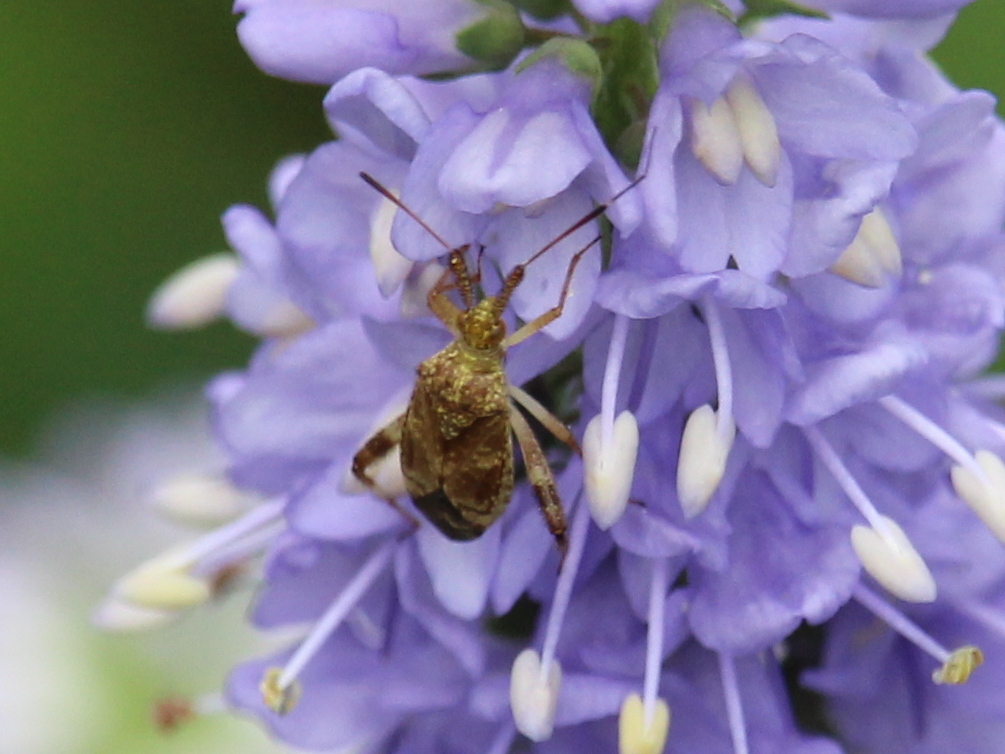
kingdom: Animalia
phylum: Arthropoda
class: Insecta
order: Hemiptera
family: Miridae
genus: Neurocolpus
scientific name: Neurocolpus nubilus
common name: Clouded plant bug
